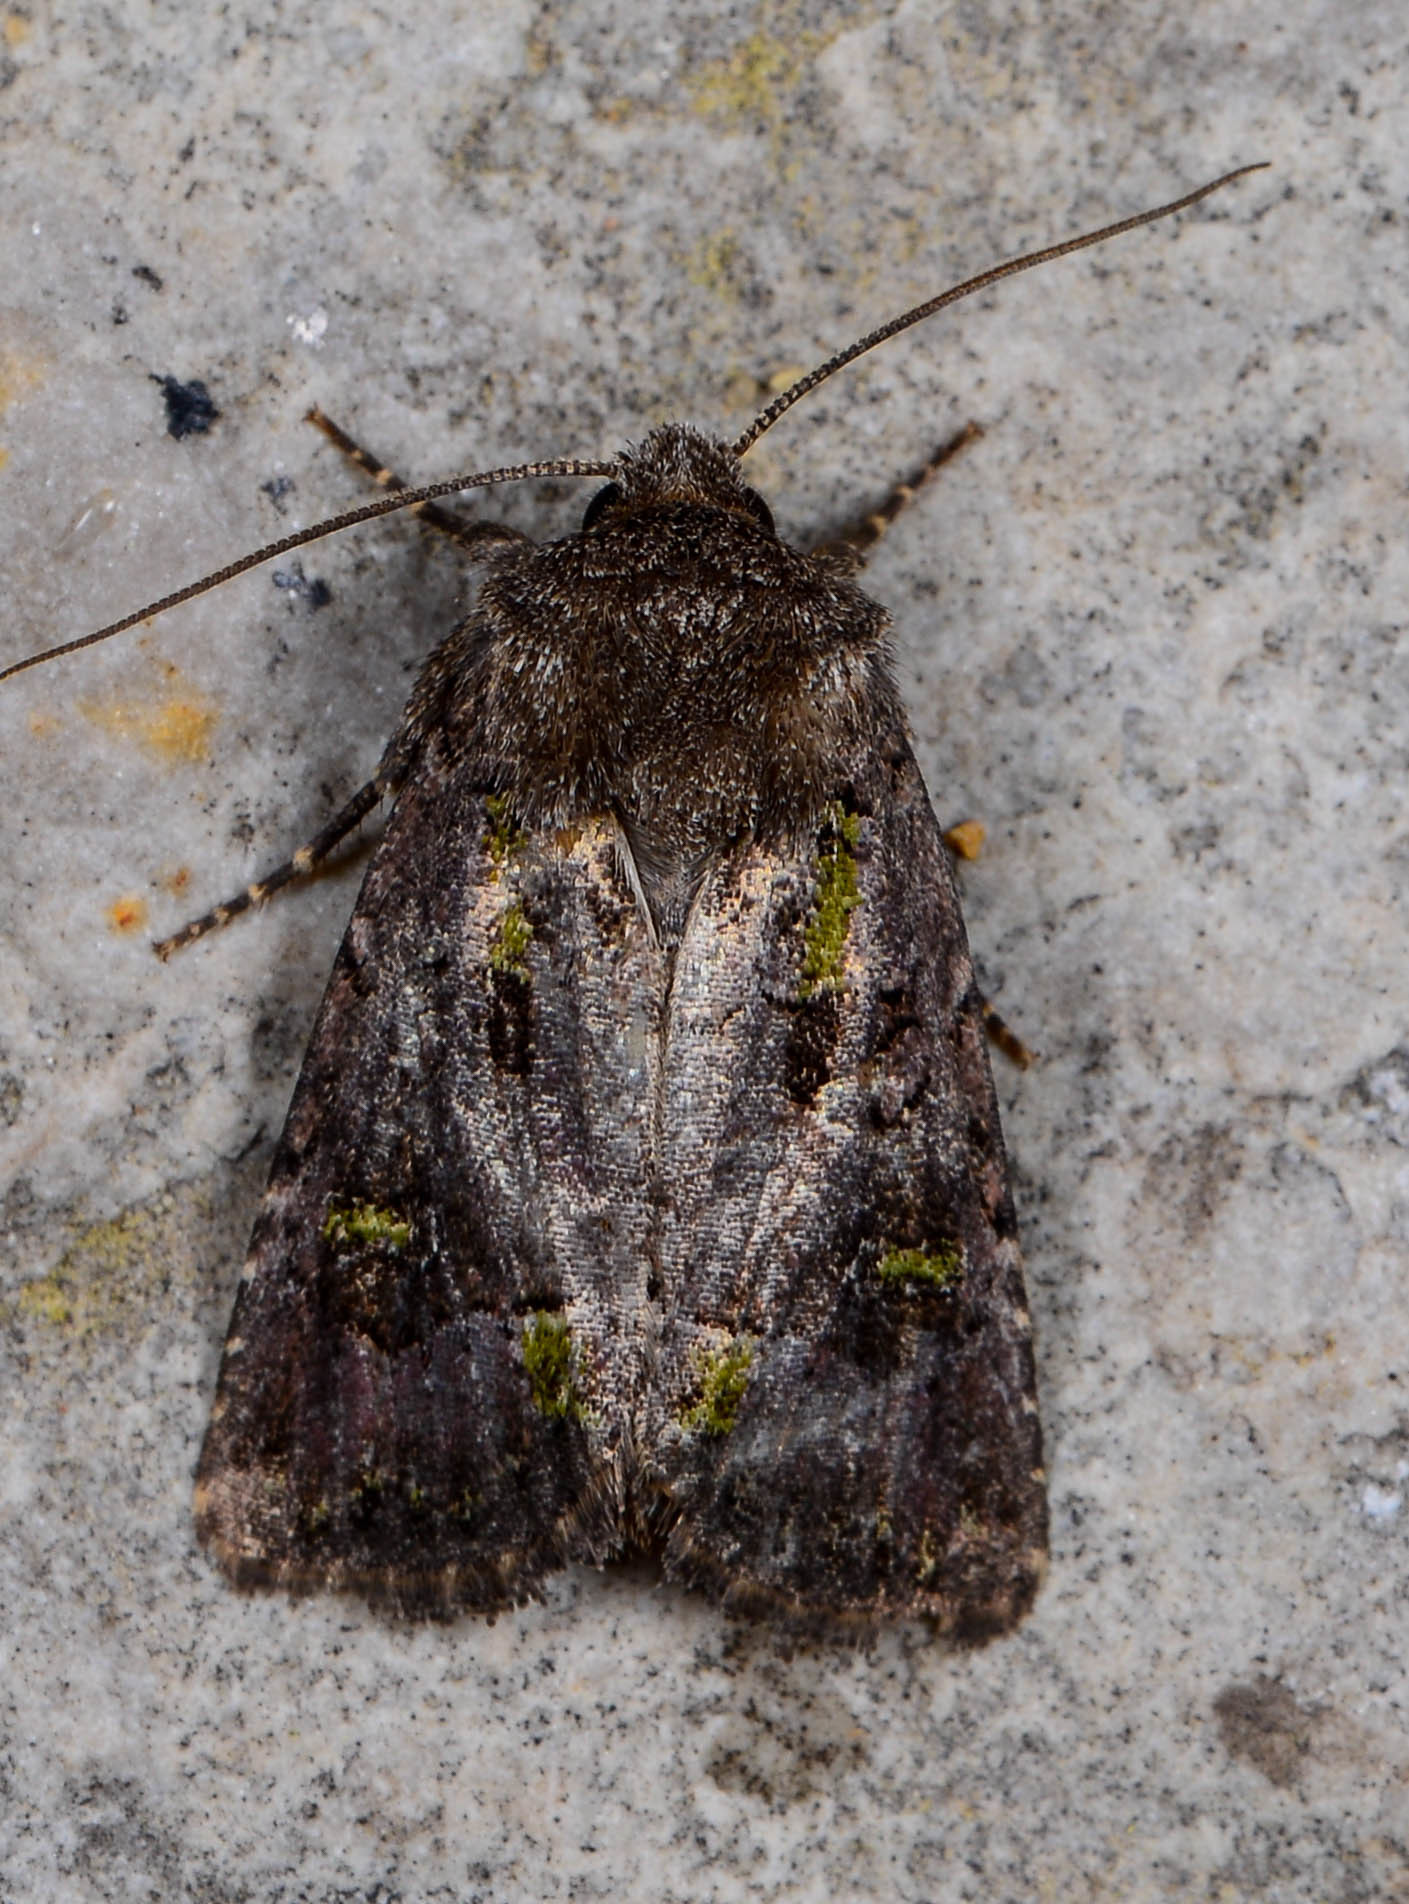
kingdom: Animalia
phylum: Arthropoda
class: Insecta
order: Lepidoptera
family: Noctuidae
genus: Lacinipolia
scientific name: Lacinipolia renigera
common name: Kidney-spotted minor
